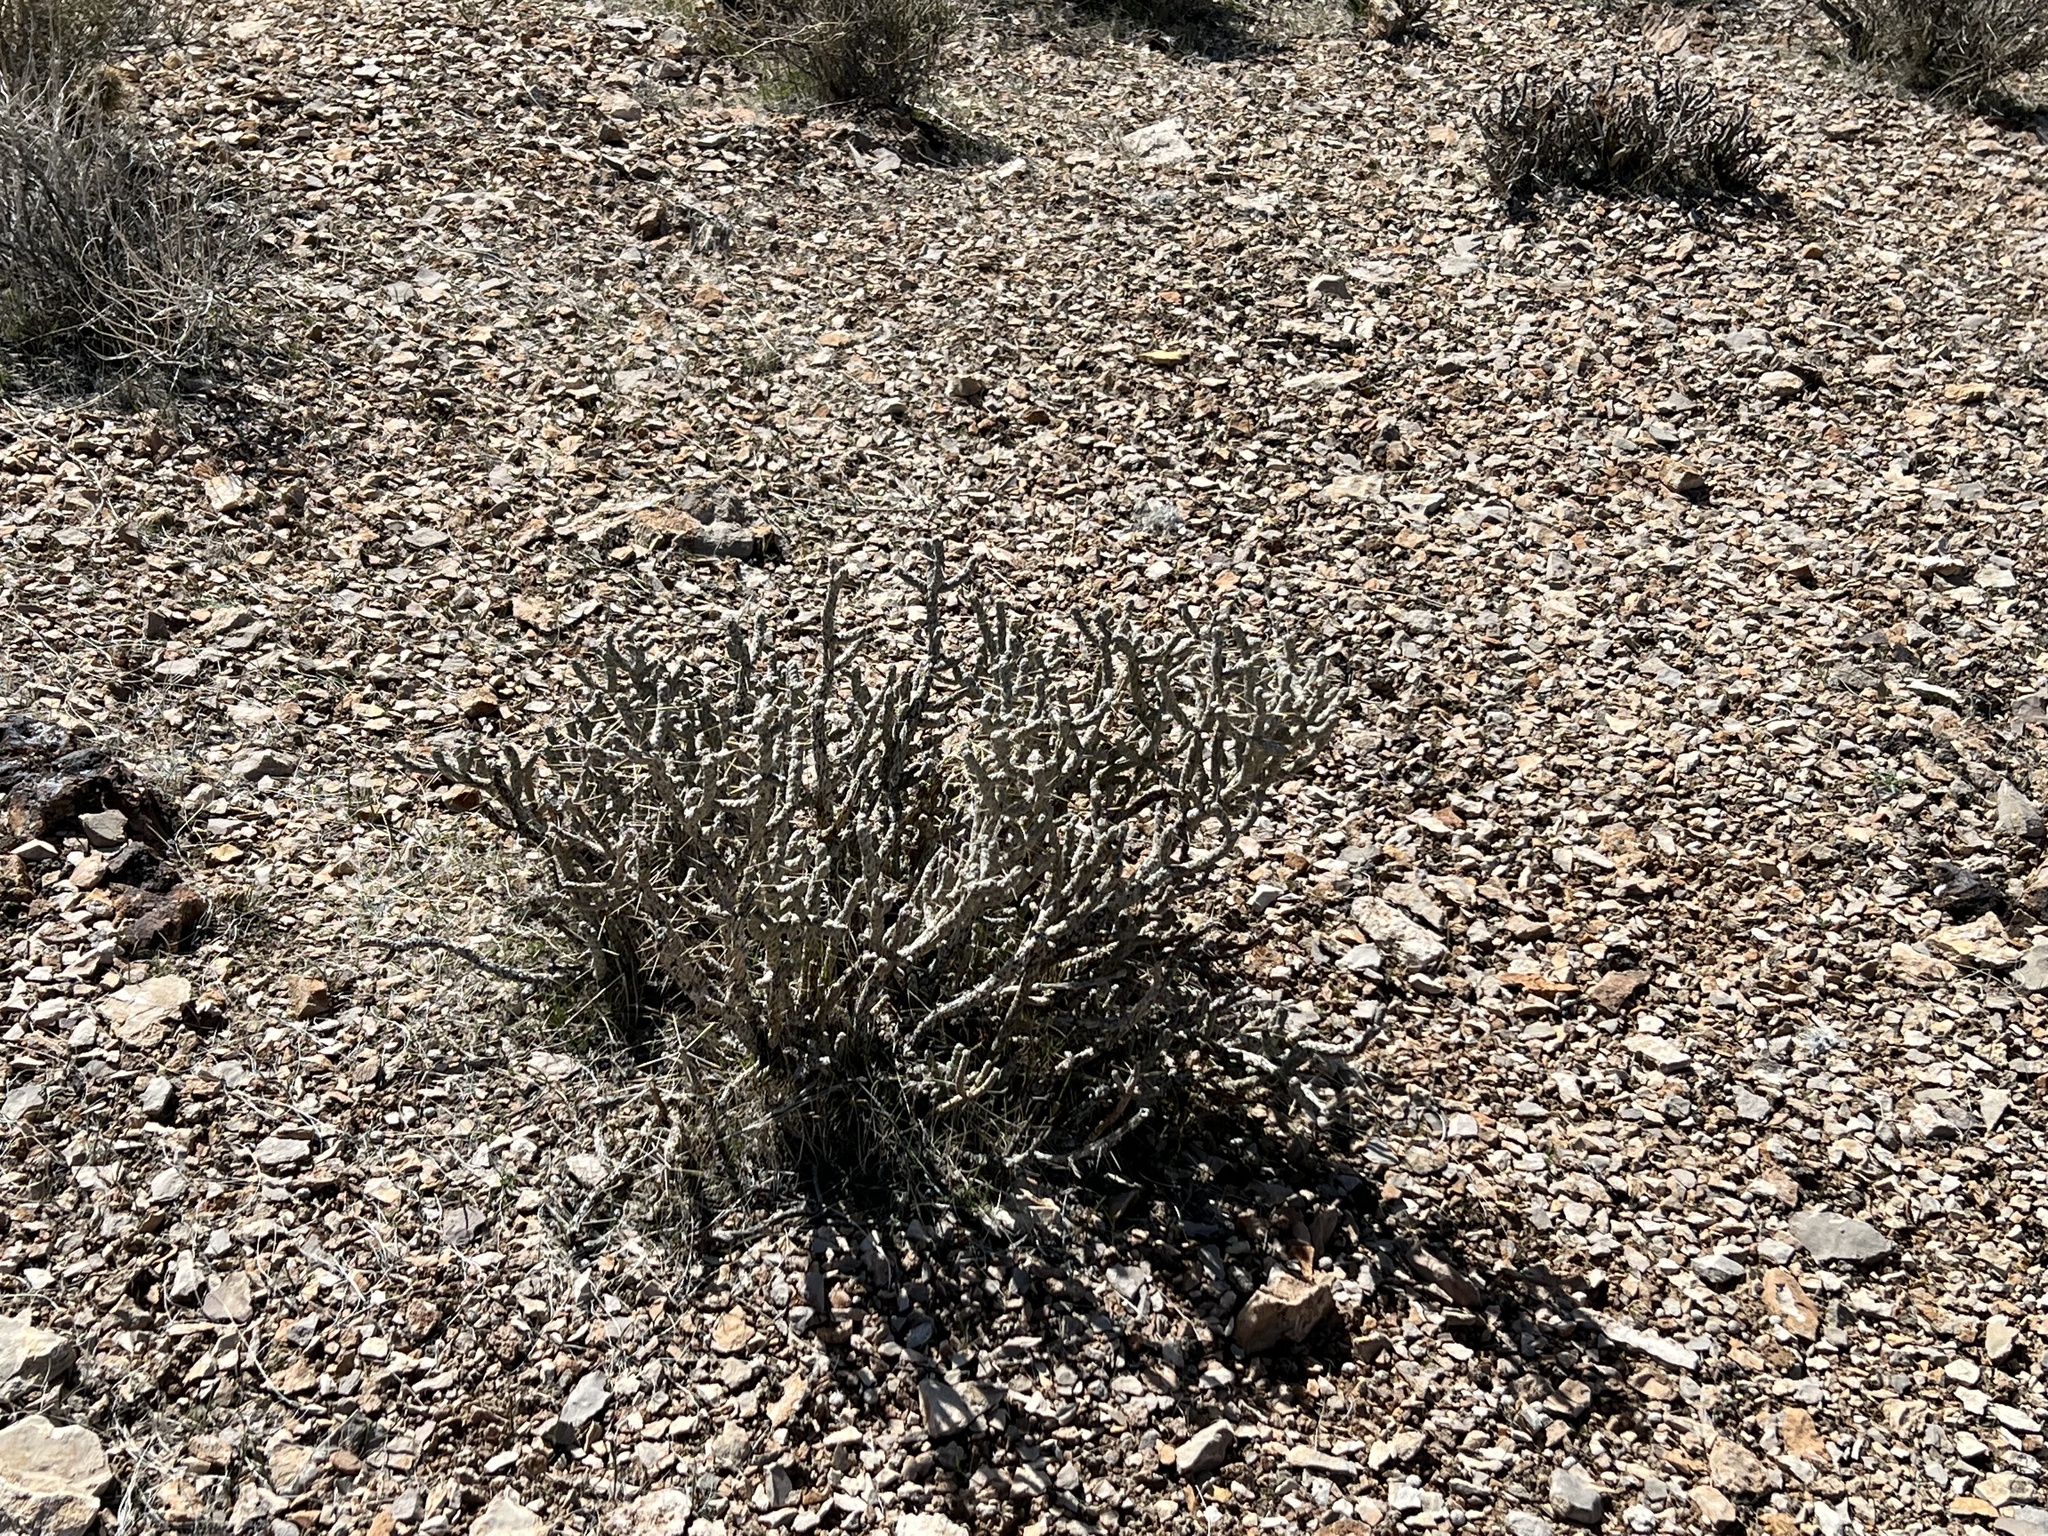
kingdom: Plantae
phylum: Tracheophyta
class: Magnoliopsida
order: Caryophyllales
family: Cactaceae
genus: Cylindropuntia
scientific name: Cylindropuntia ramosissima
